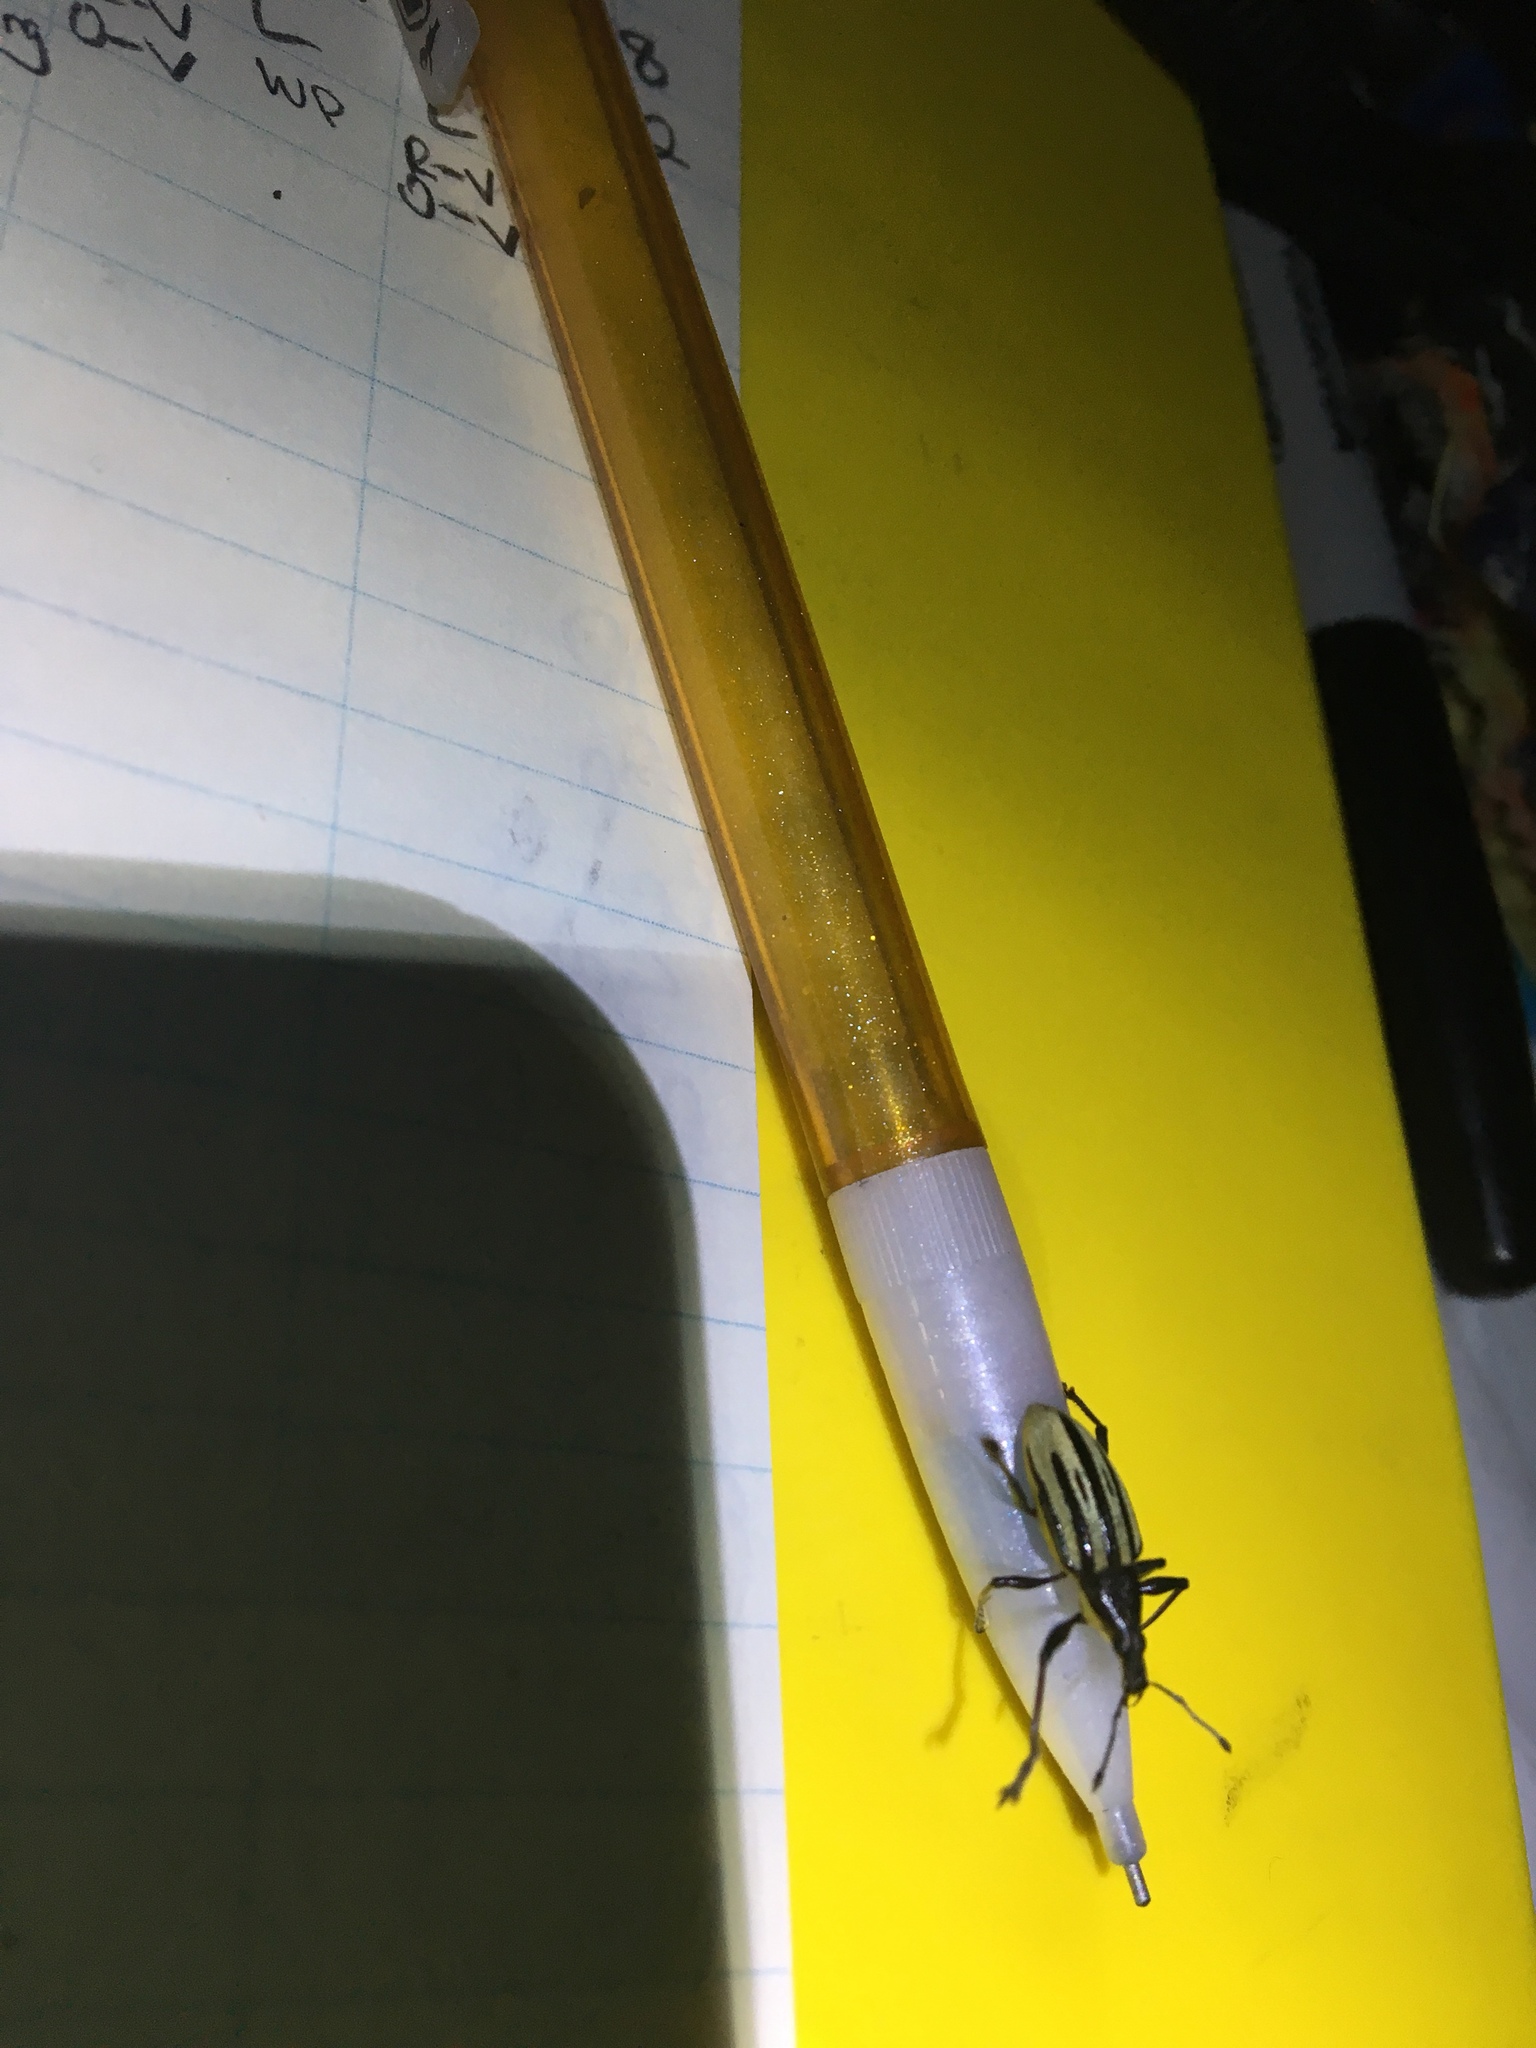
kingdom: Animalia
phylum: Arthropoda
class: Insecta
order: Coleoptera
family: Curculionidae
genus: Diaprepes
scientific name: Diaprepes abbreviatus
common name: Root weevil
